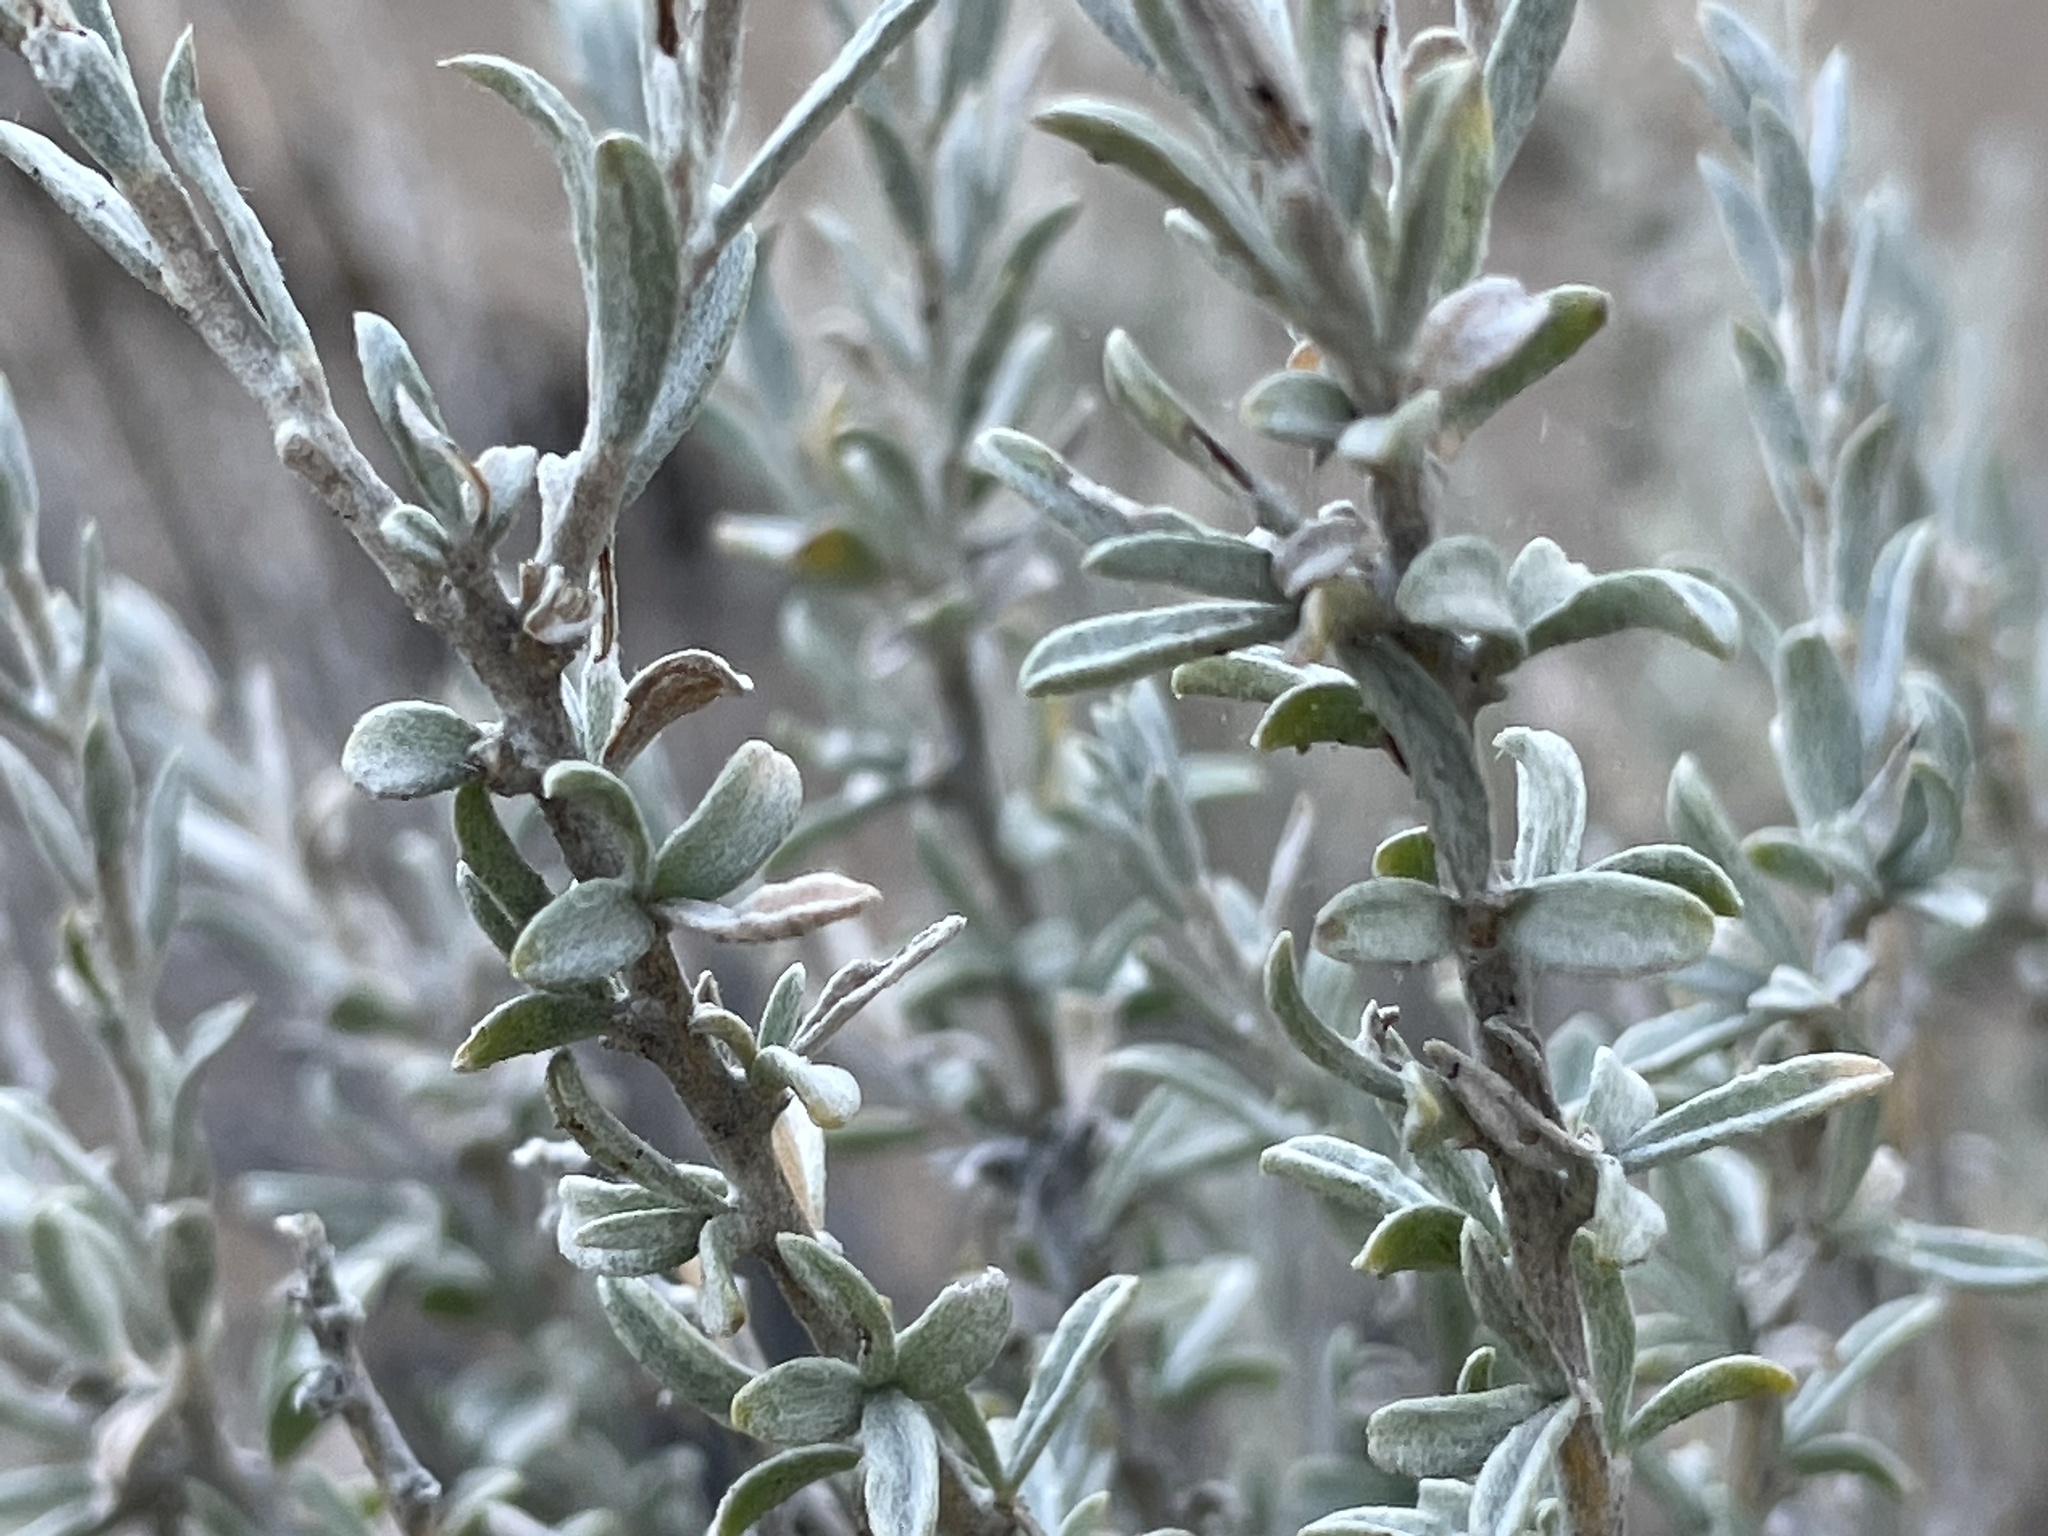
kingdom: Plantae
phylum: Tracheophyta
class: Magnoliopsida
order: Asterales
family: Asteraceae
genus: Tetradymia
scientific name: Tetradymia canescens
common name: Spineless horsebrush
